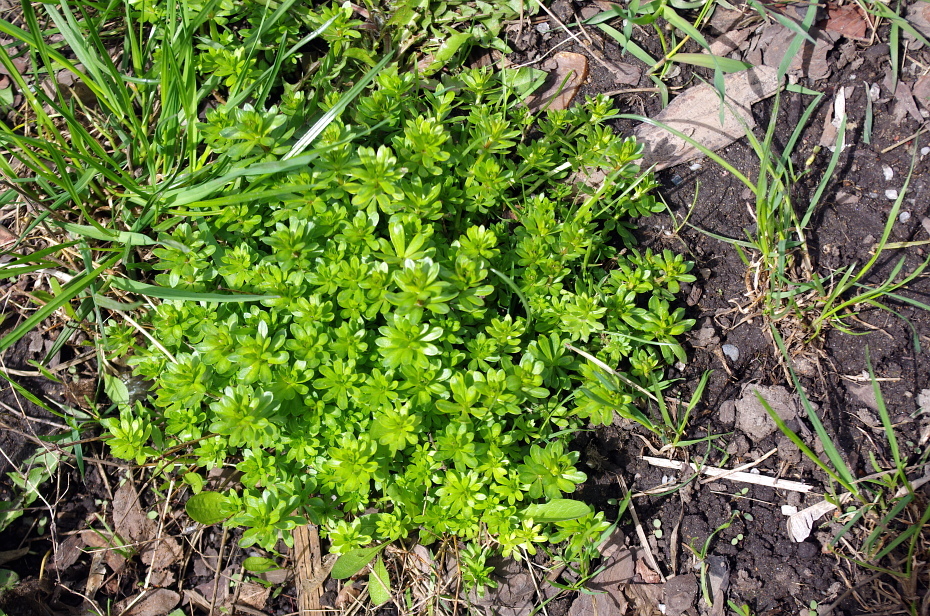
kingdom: Plantae
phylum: Tracheophyta
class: Magnoliopsida
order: Gentianales
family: Rubiaceae
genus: Galium
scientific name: Galium mollugo
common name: Hedge bedstraw
